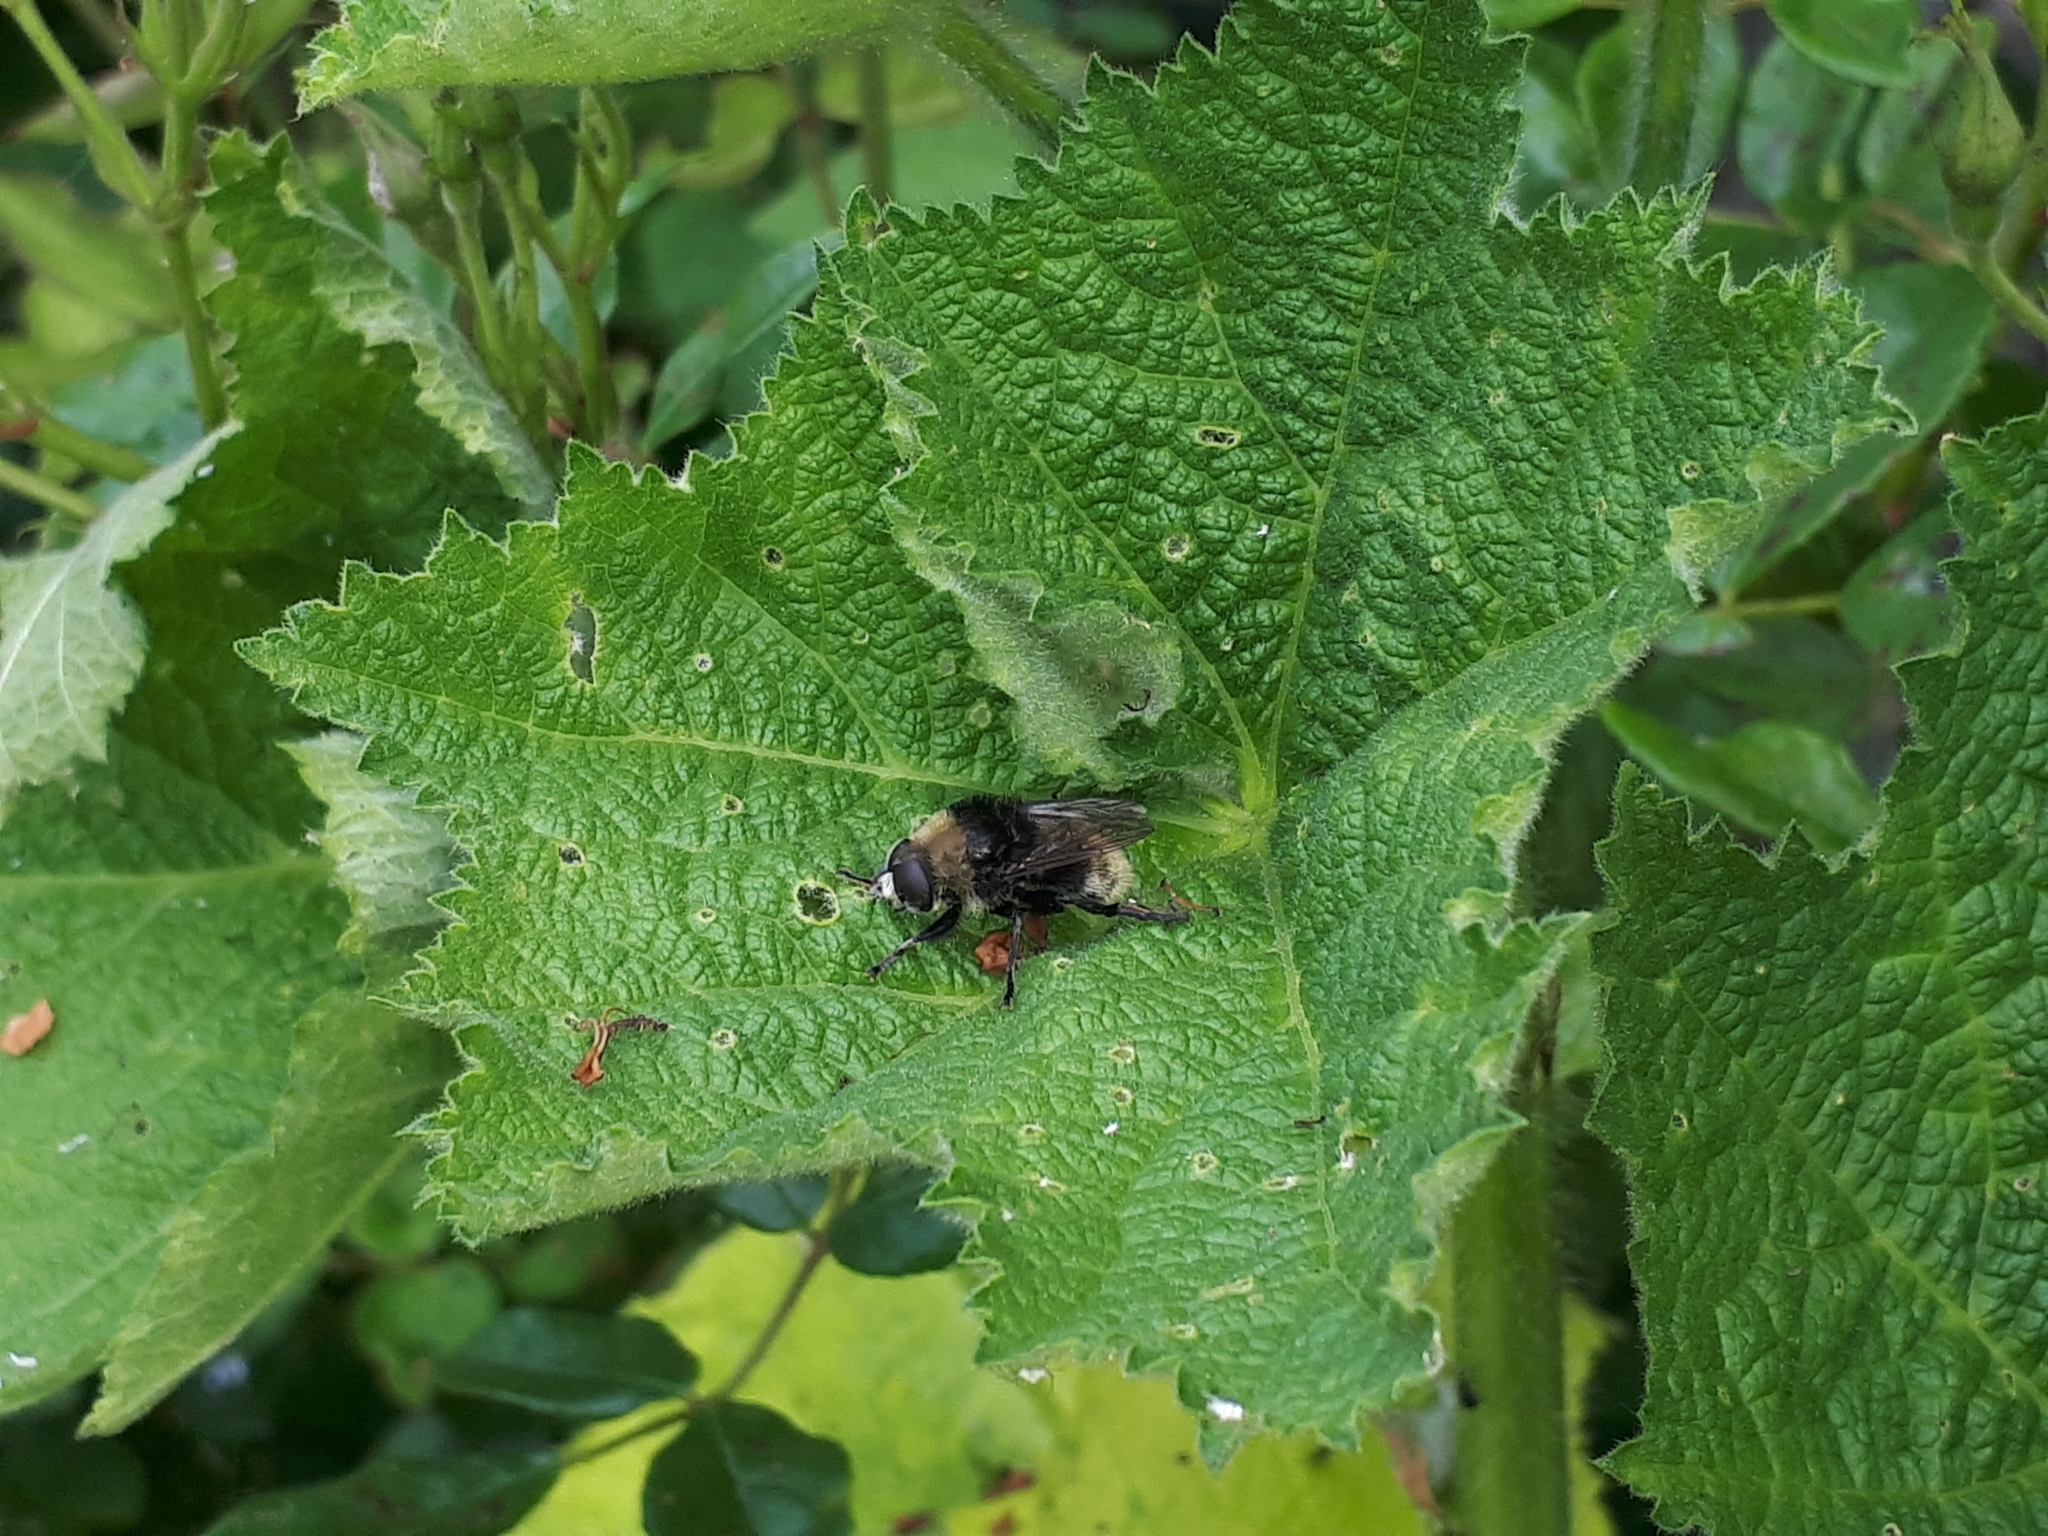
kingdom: Animalia
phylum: Arthropoda
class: Insecta
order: Diptera
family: Syrphidae
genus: Merodon
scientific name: Merodon equestris
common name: Greater bulb-fly
